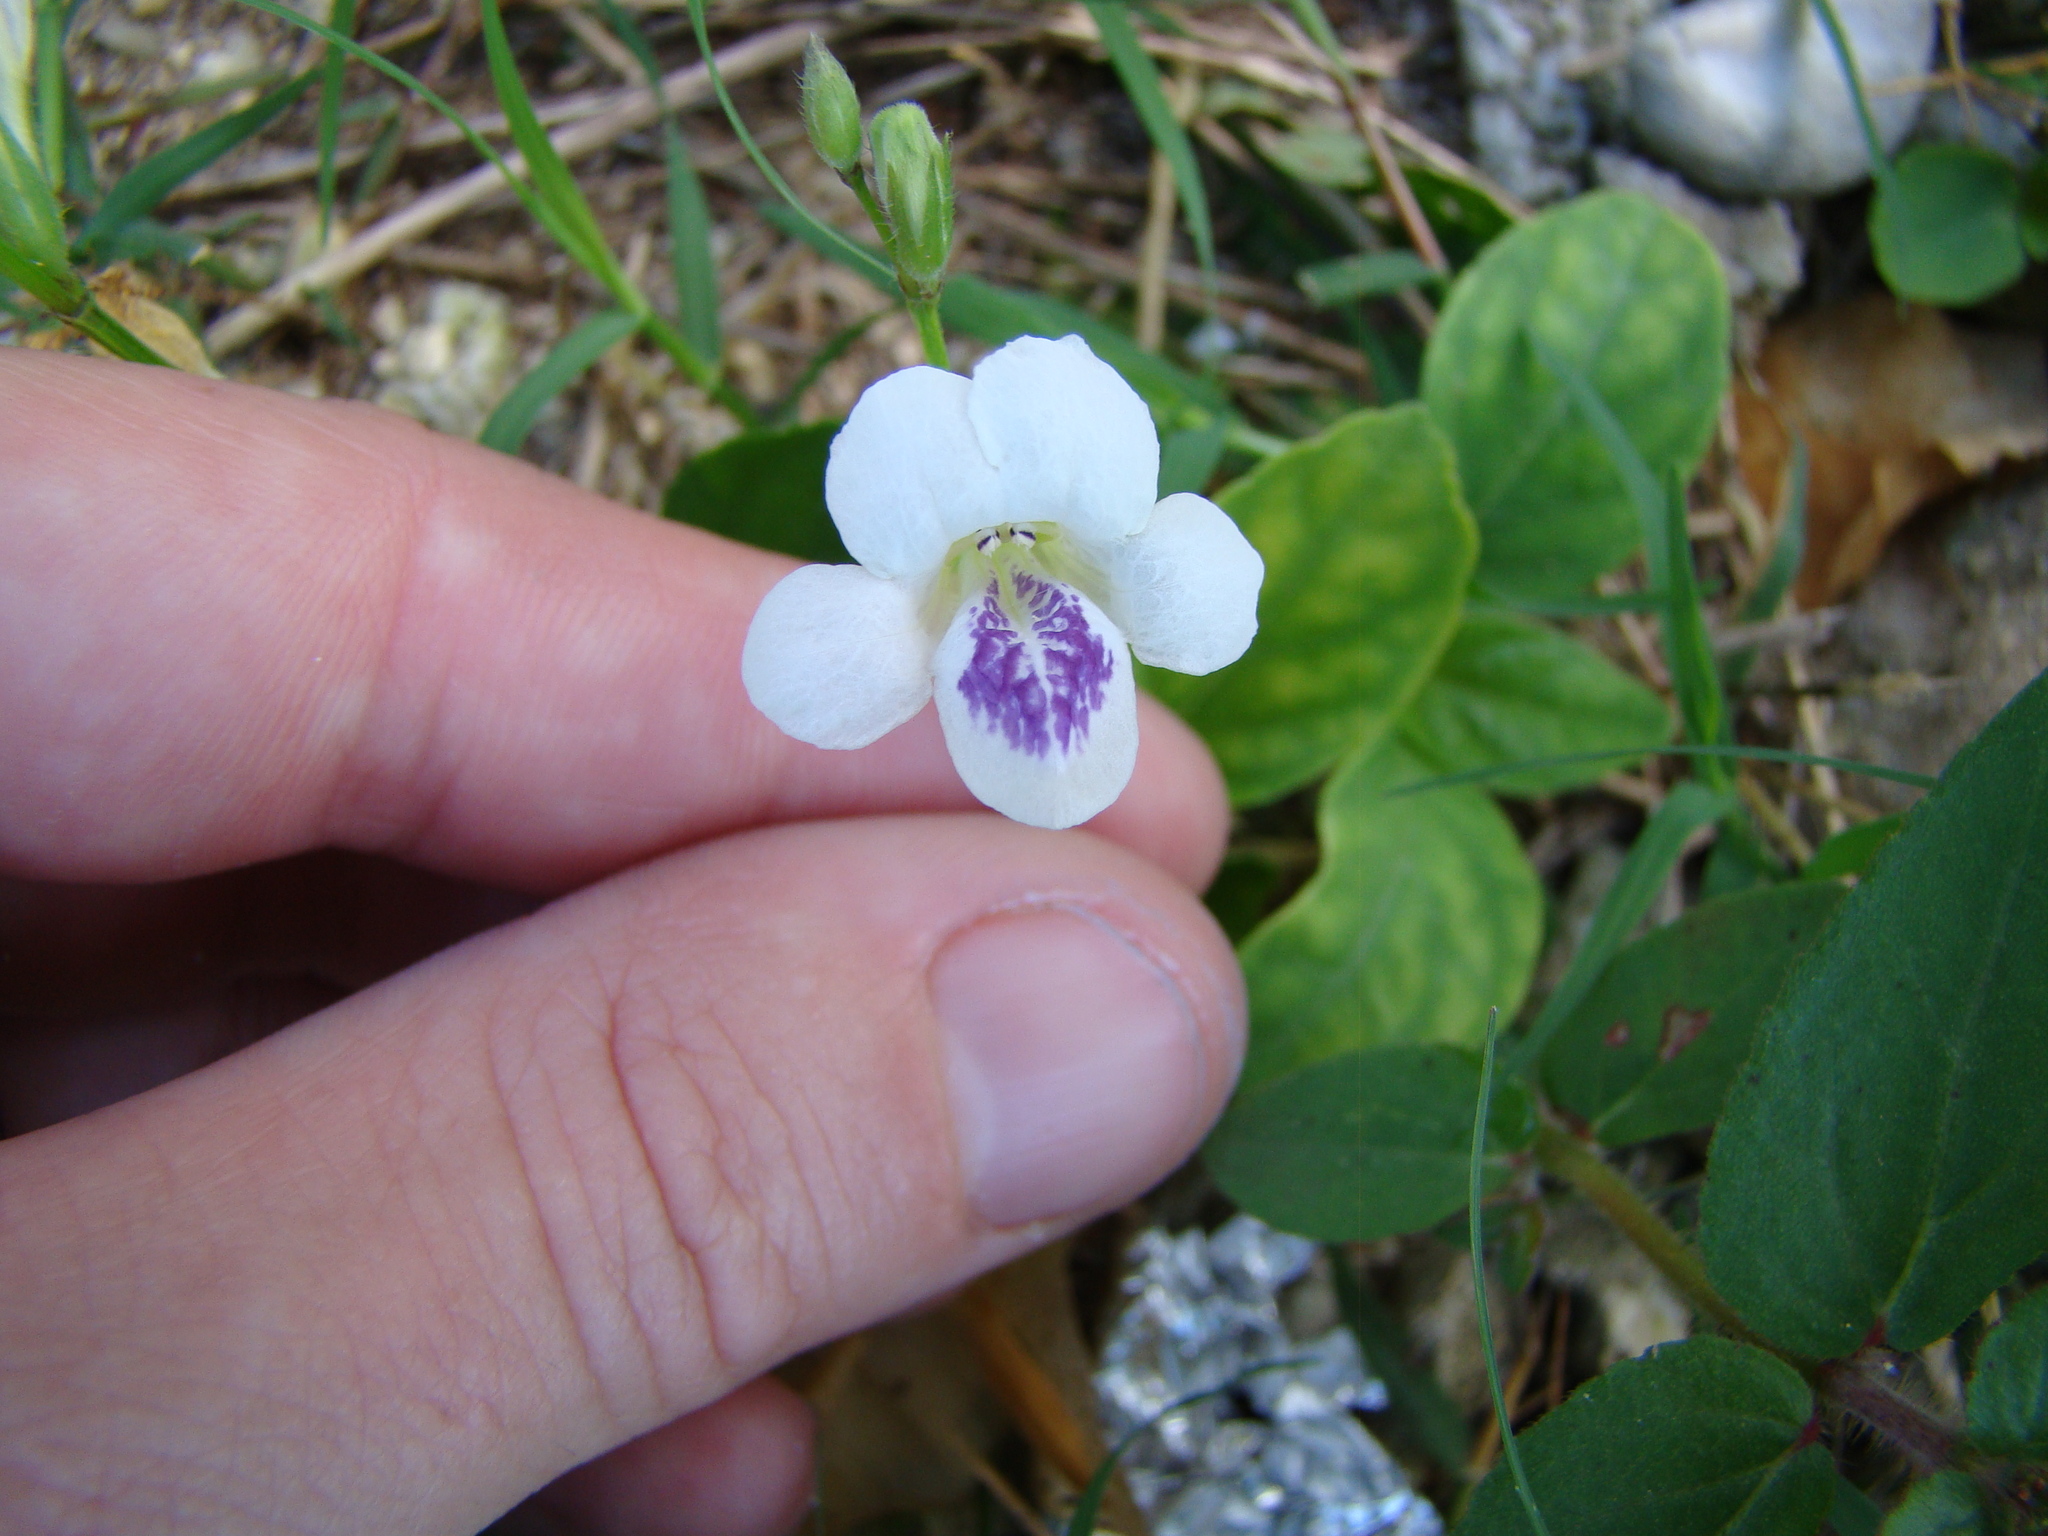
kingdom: Plantae
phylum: Tracheophyta
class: Magnoliopsida
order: Lamiales
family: Acanthaceae
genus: Asystasia
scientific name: Asystasia intrusa
